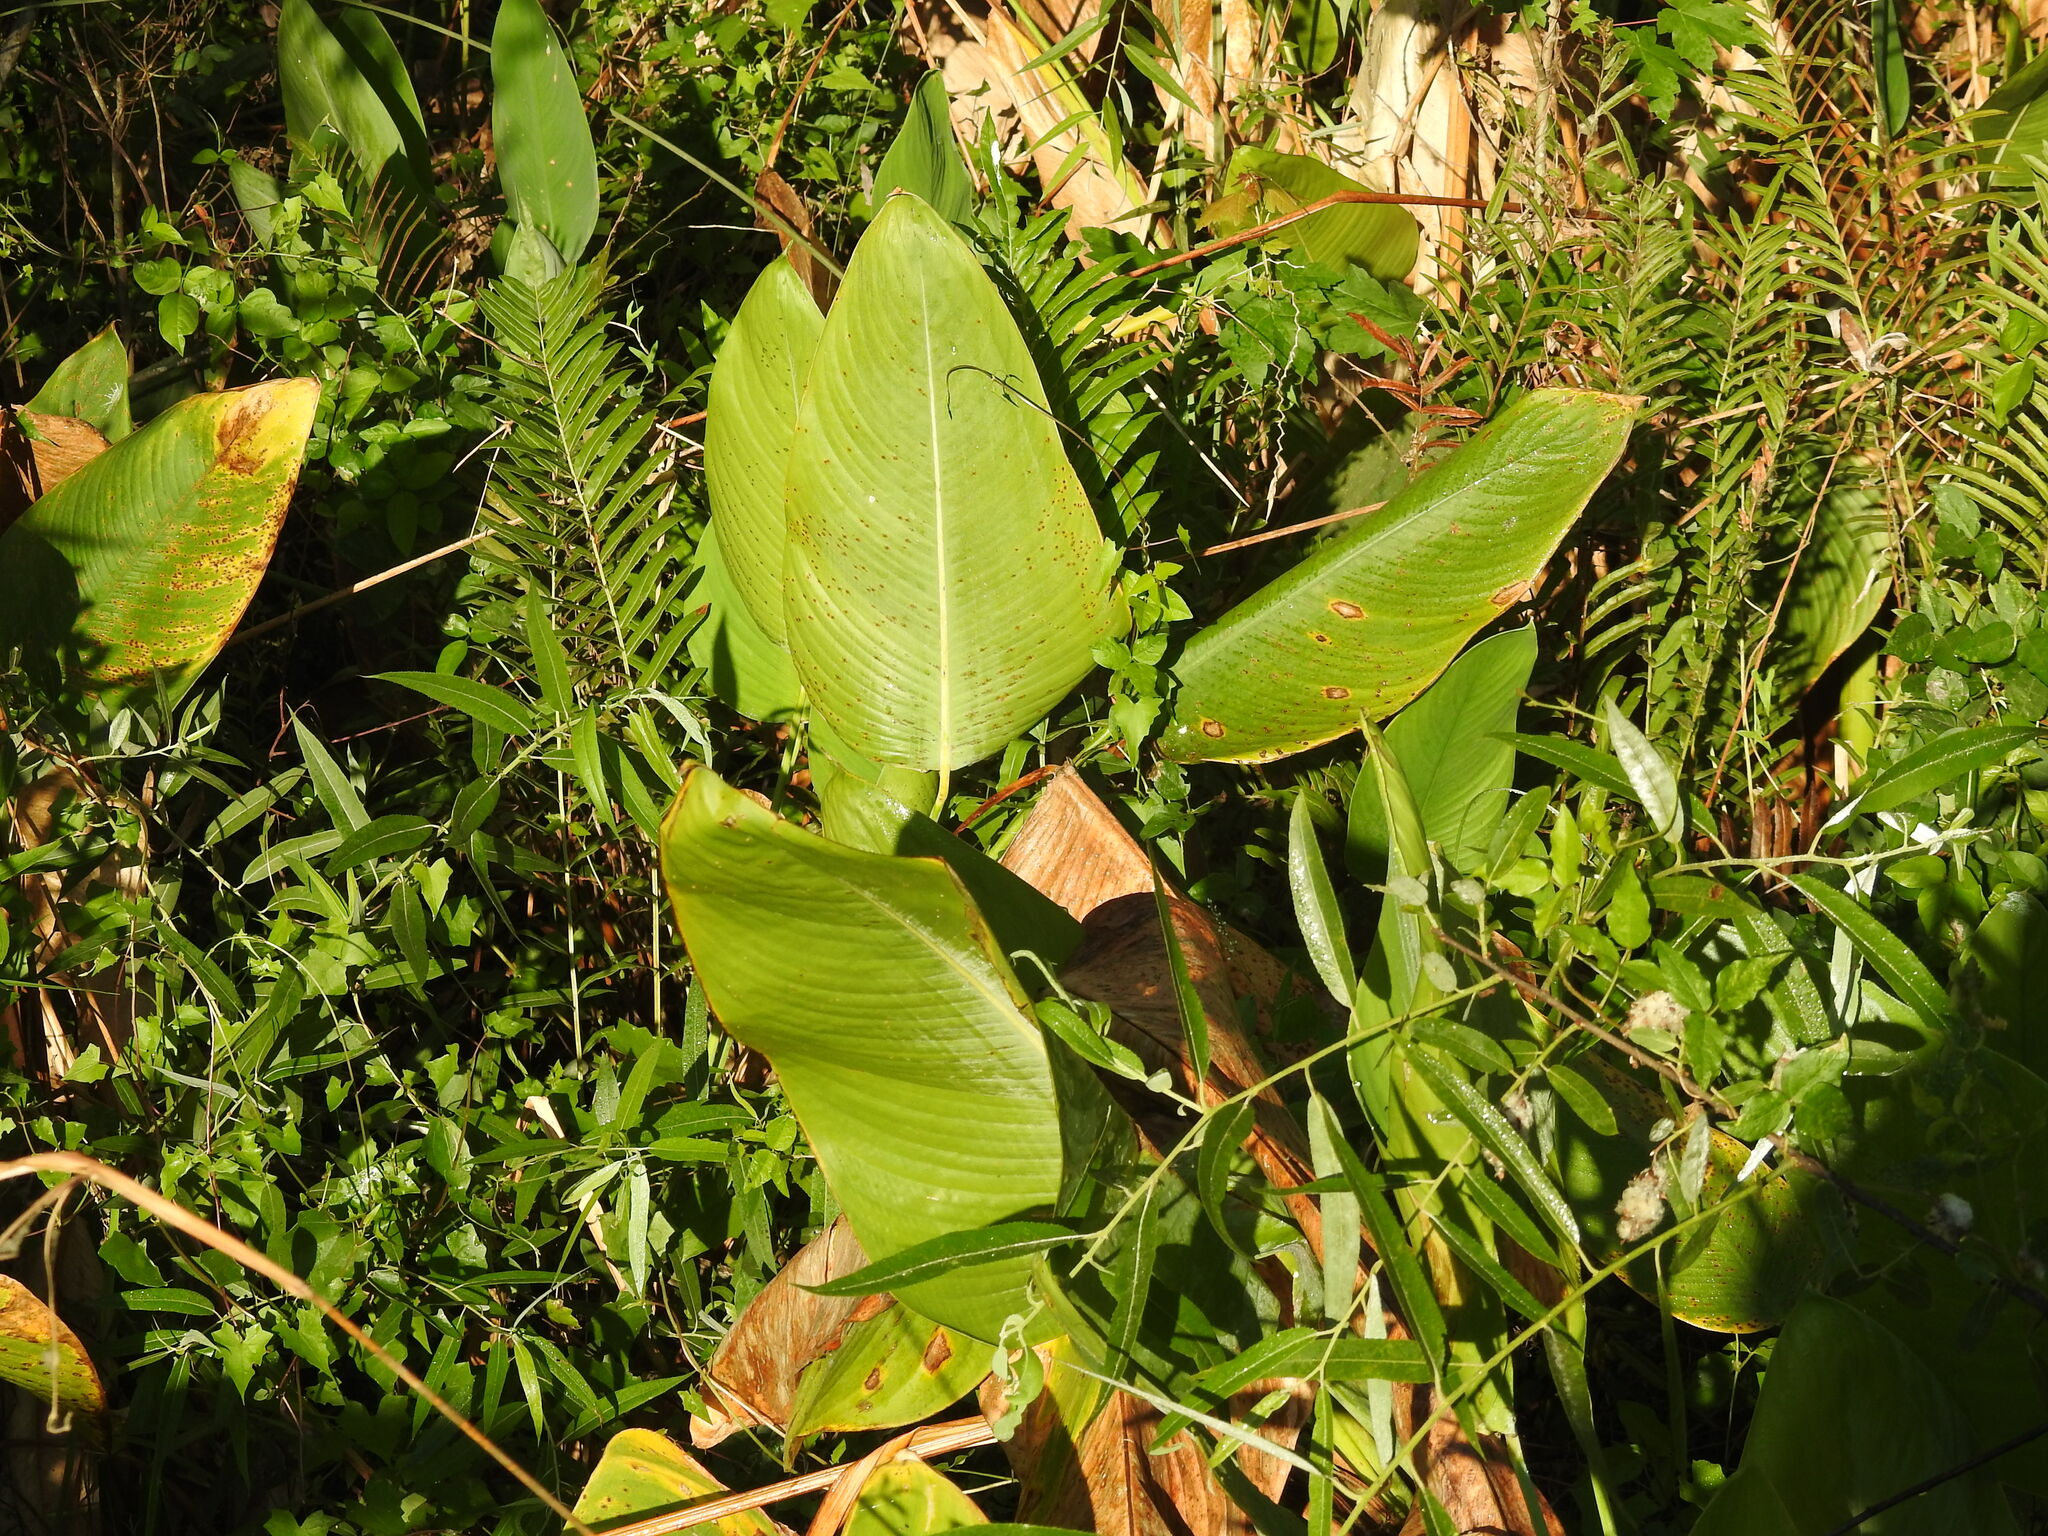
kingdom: Plantae
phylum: Tracheophyta
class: Liliopsida
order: Zingiberales
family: Marantaceae
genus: Thalia
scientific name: Thalia geniculata
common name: Arrowroot
